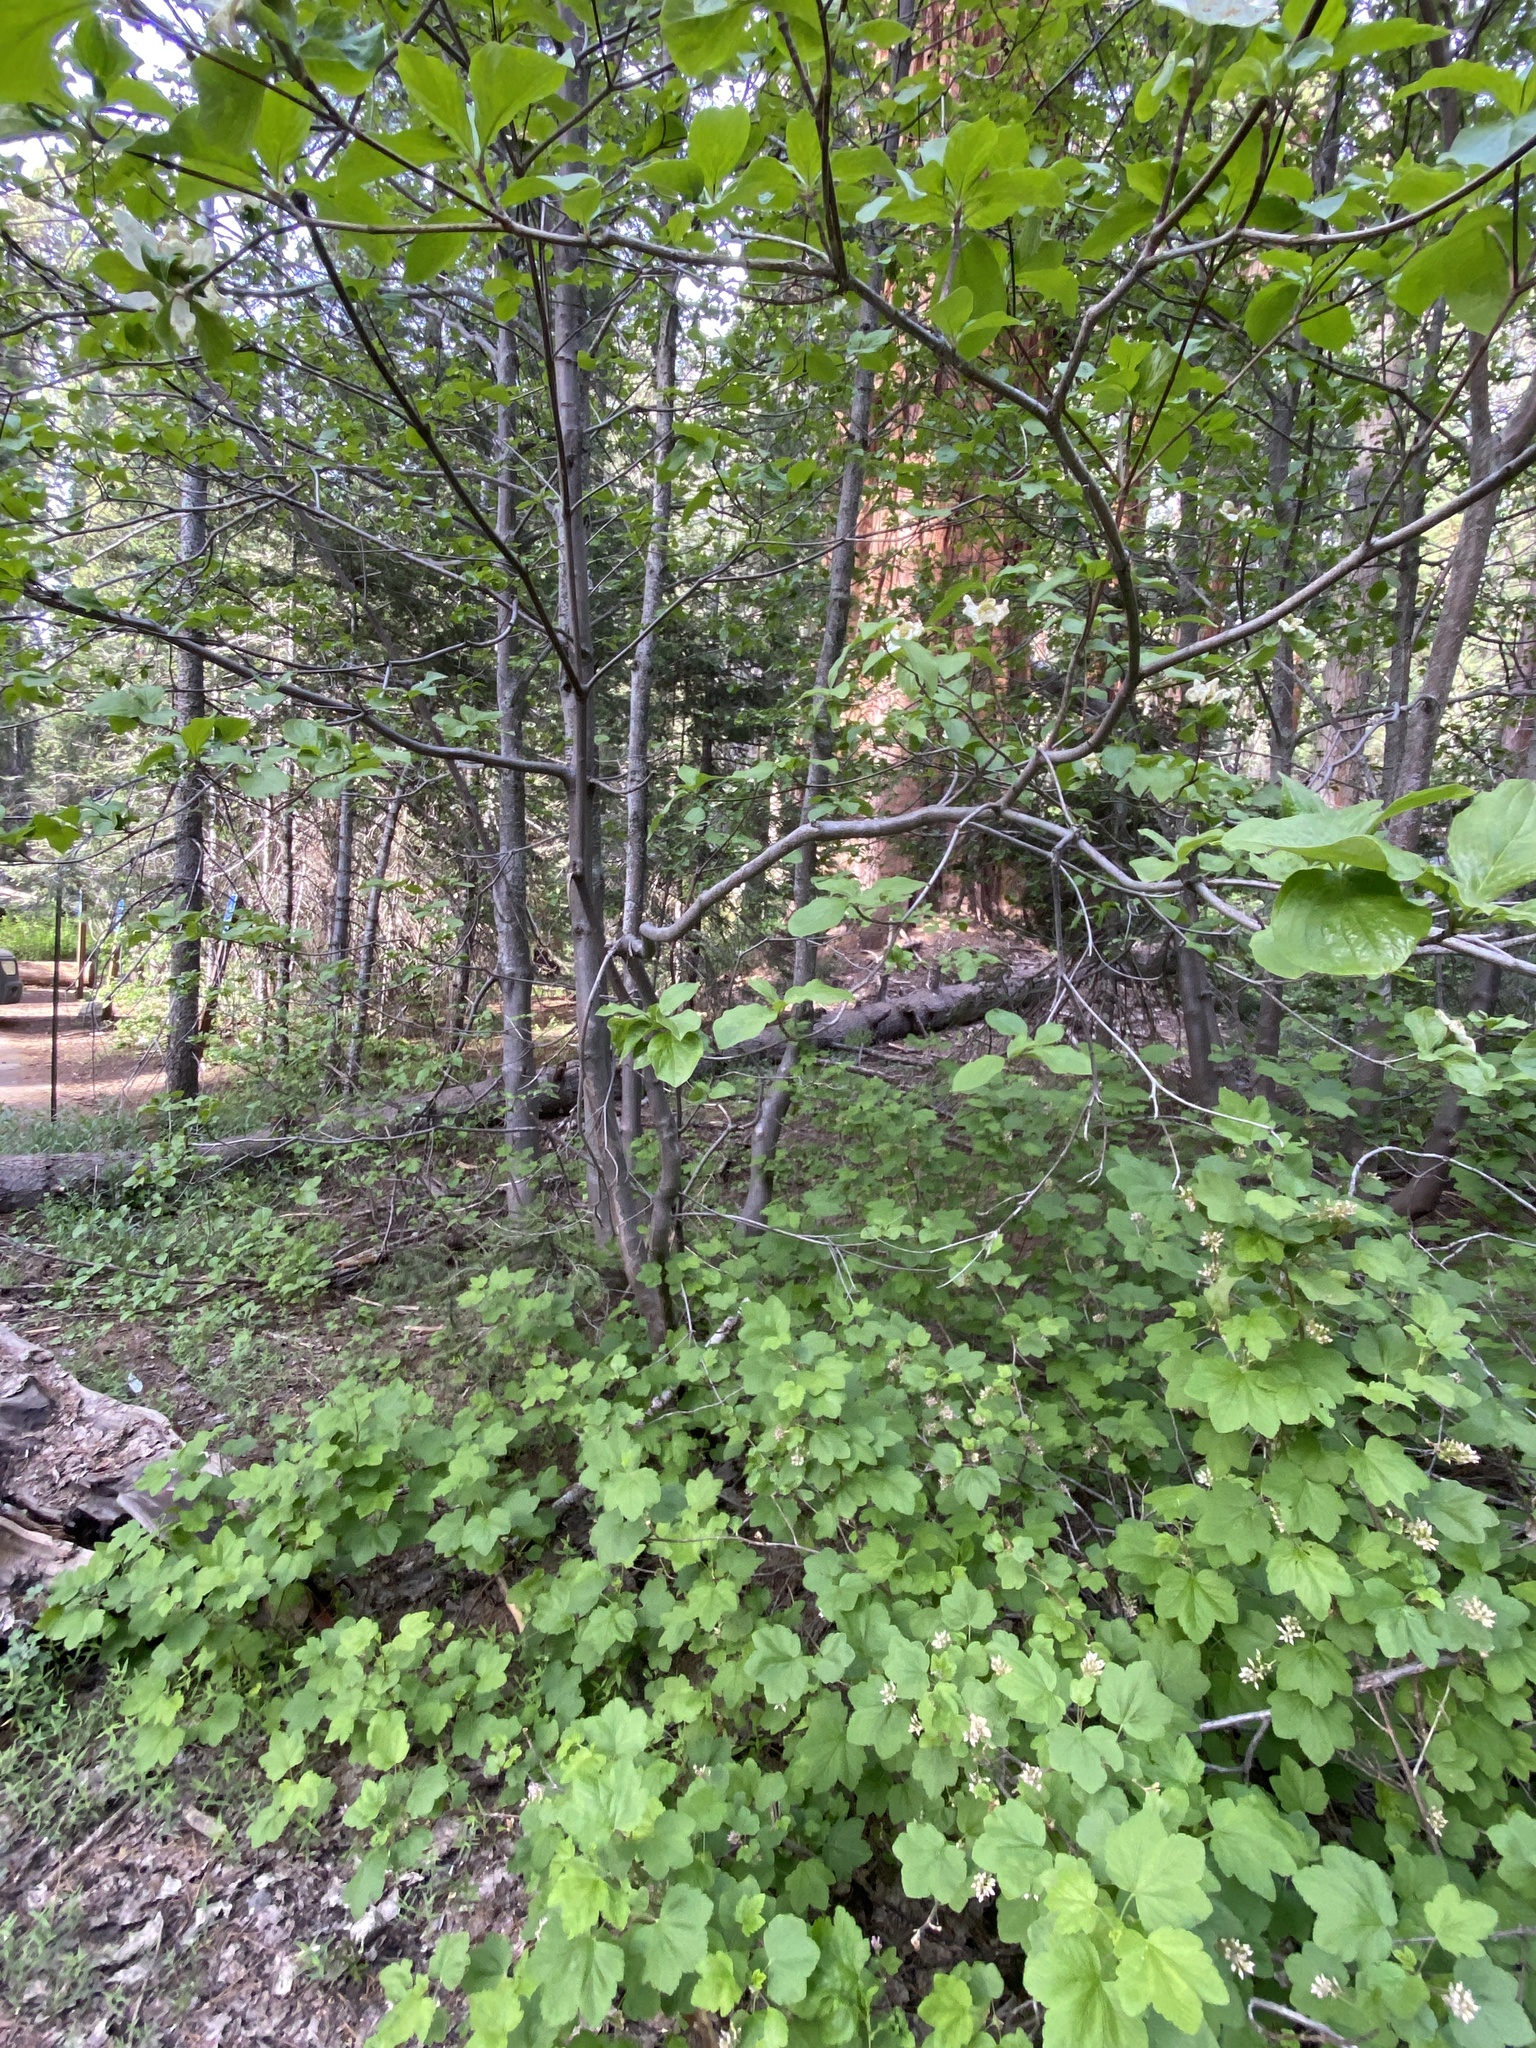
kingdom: Plantae
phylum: Tracheophyta
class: Magnoliopsida
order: Cornales
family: Cornaceae
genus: Cornus
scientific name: Cornus nuttallii
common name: Pacific dogwood
